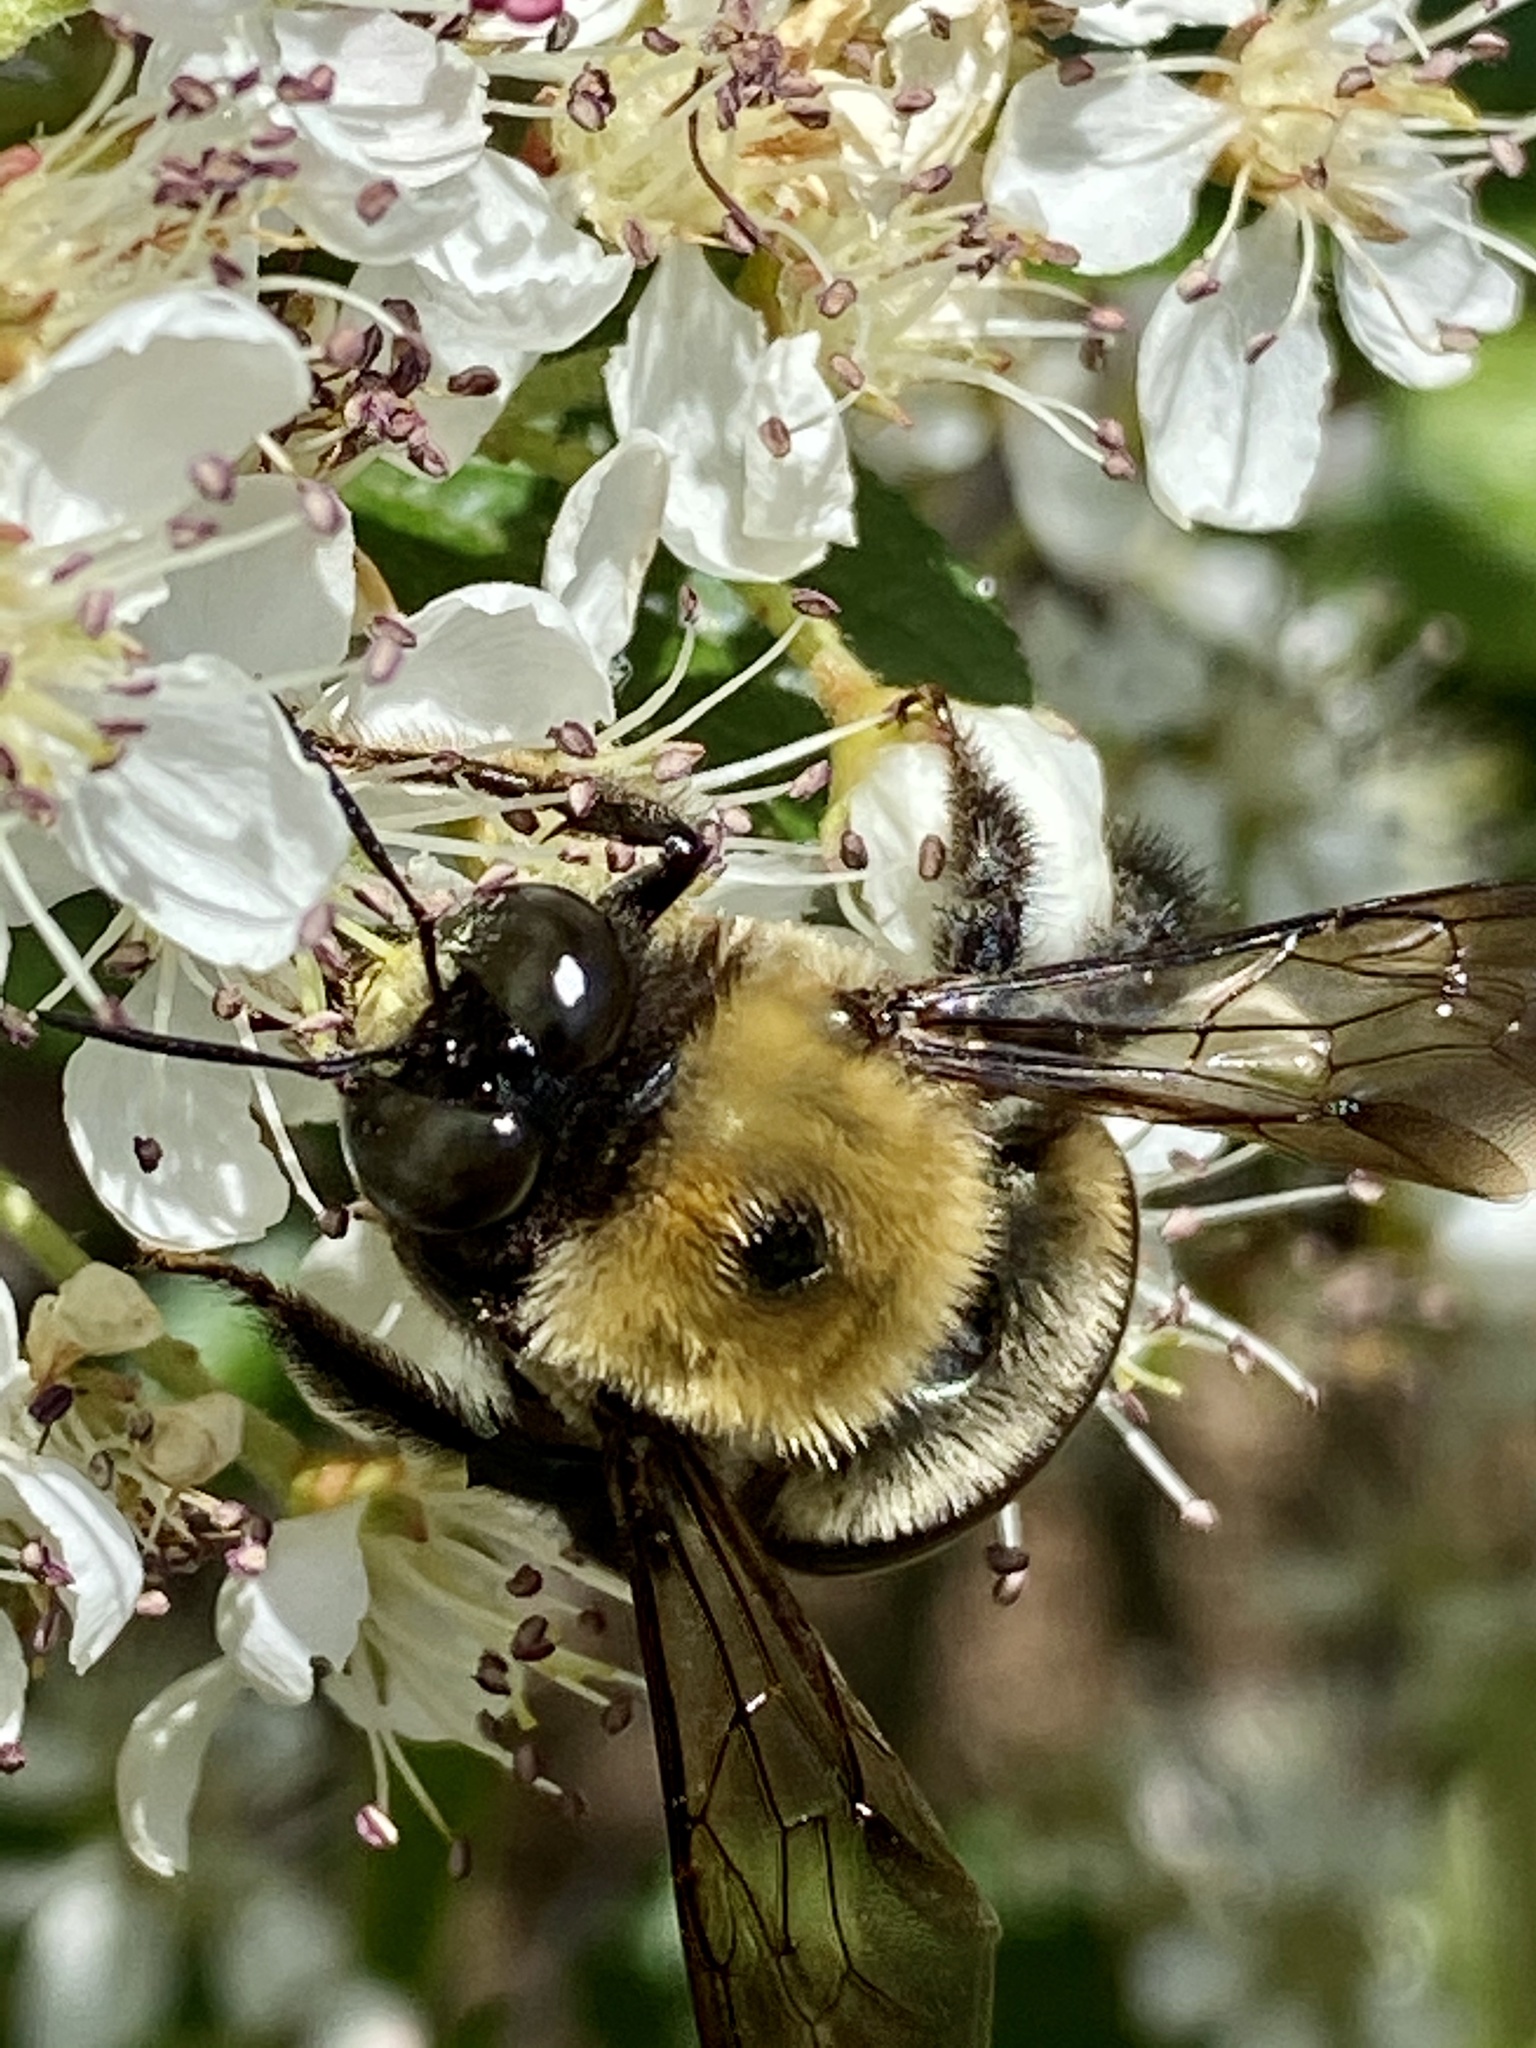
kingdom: Animalia
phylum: Arthropoda
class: Insecta
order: Hymenoptera
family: Apidae
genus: Xylocopa
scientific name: Xylocopa virginica
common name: Carpenter bee
